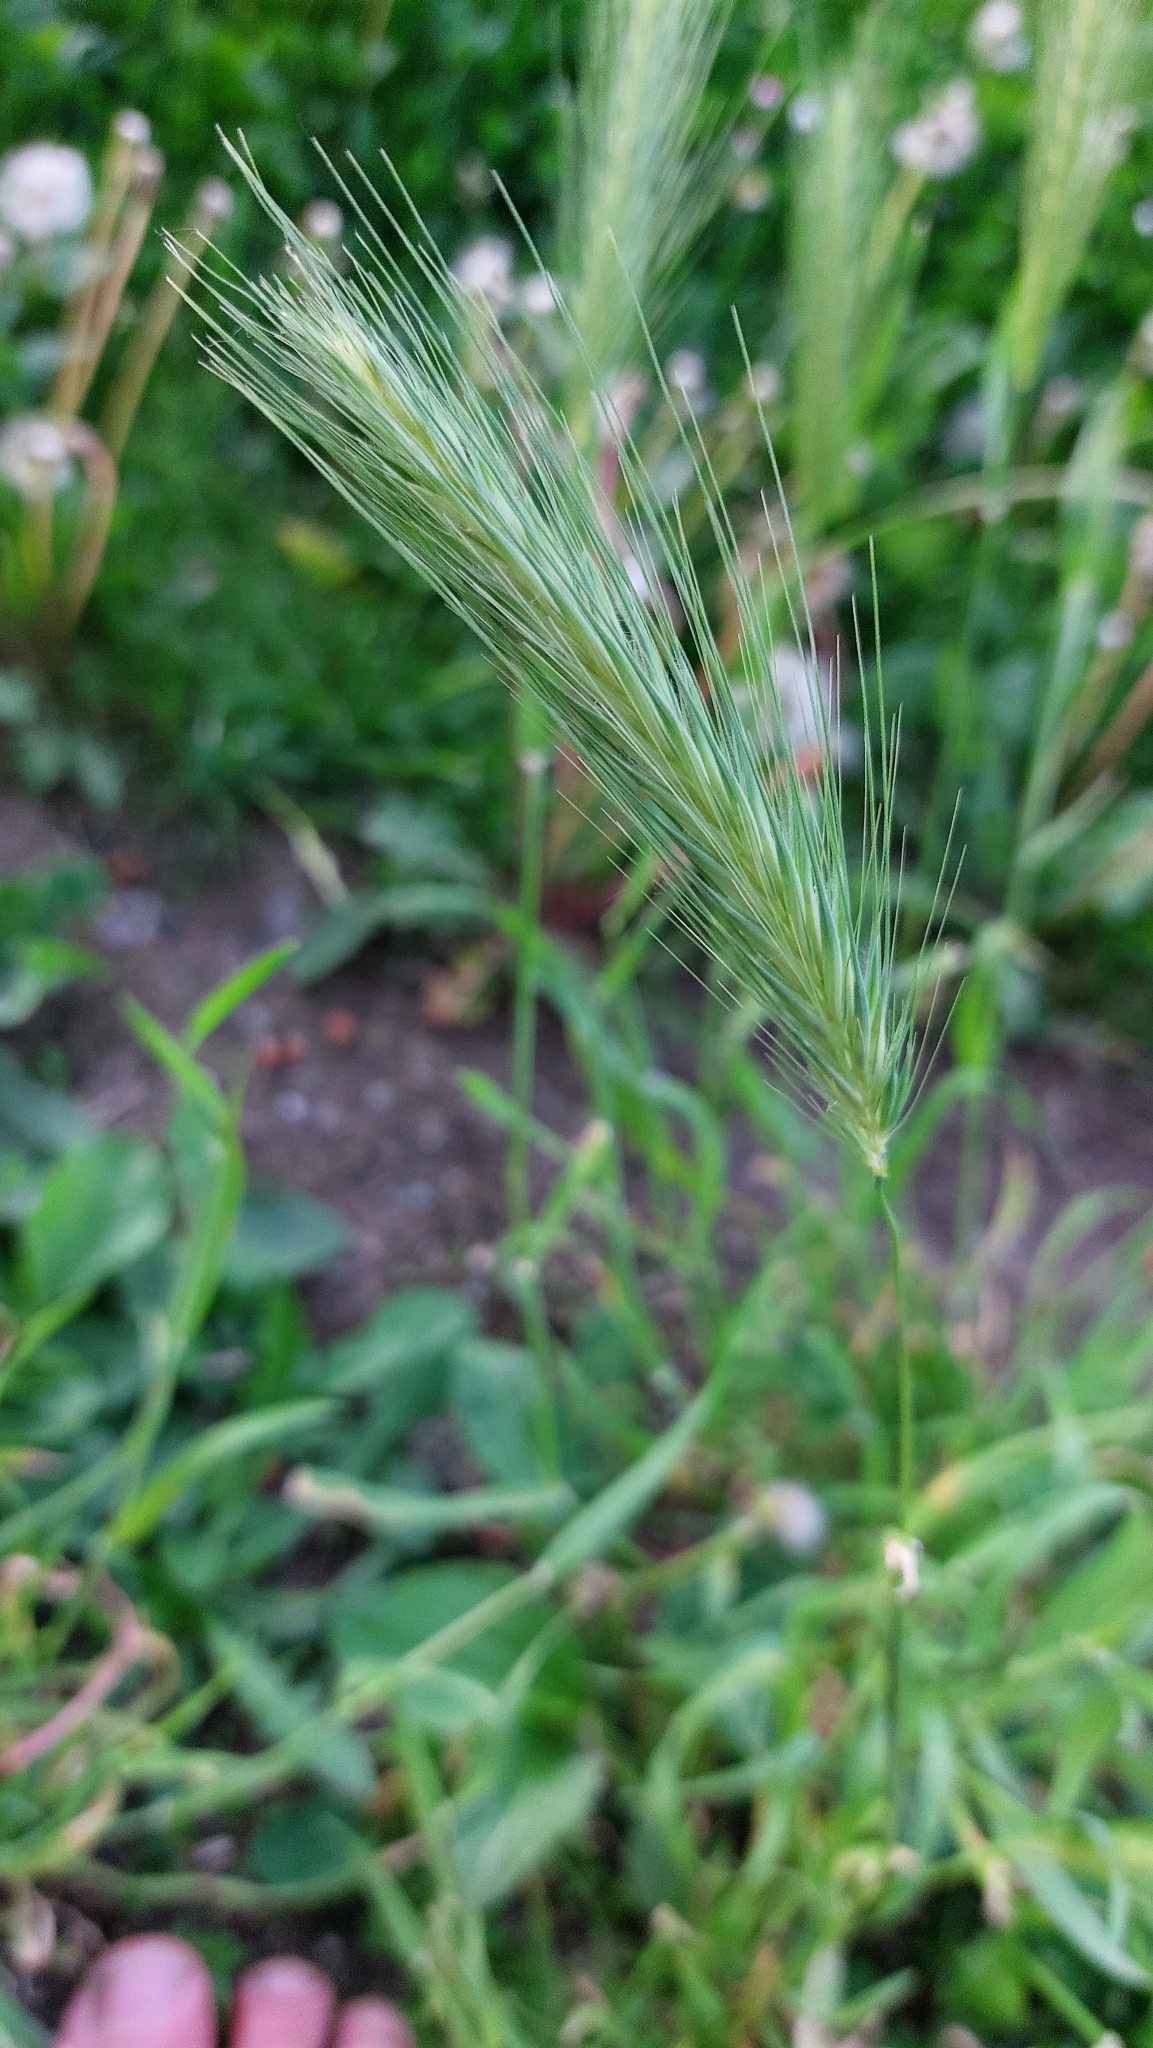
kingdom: Plantae
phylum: Tracheophyta
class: Liliopsida
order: Poales
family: Poaceae
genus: Hordeum
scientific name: Hordeum murinum
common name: Wall barley
